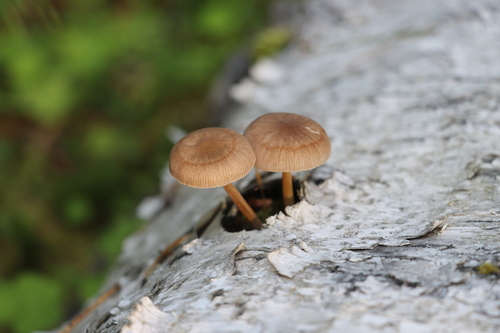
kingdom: Fungi
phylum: Basidiomycota
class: Agaricomycetes
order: Agaricales
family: Pluteaceae
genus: Pluteus
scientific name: Pluteus plautus
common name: Satin shield
